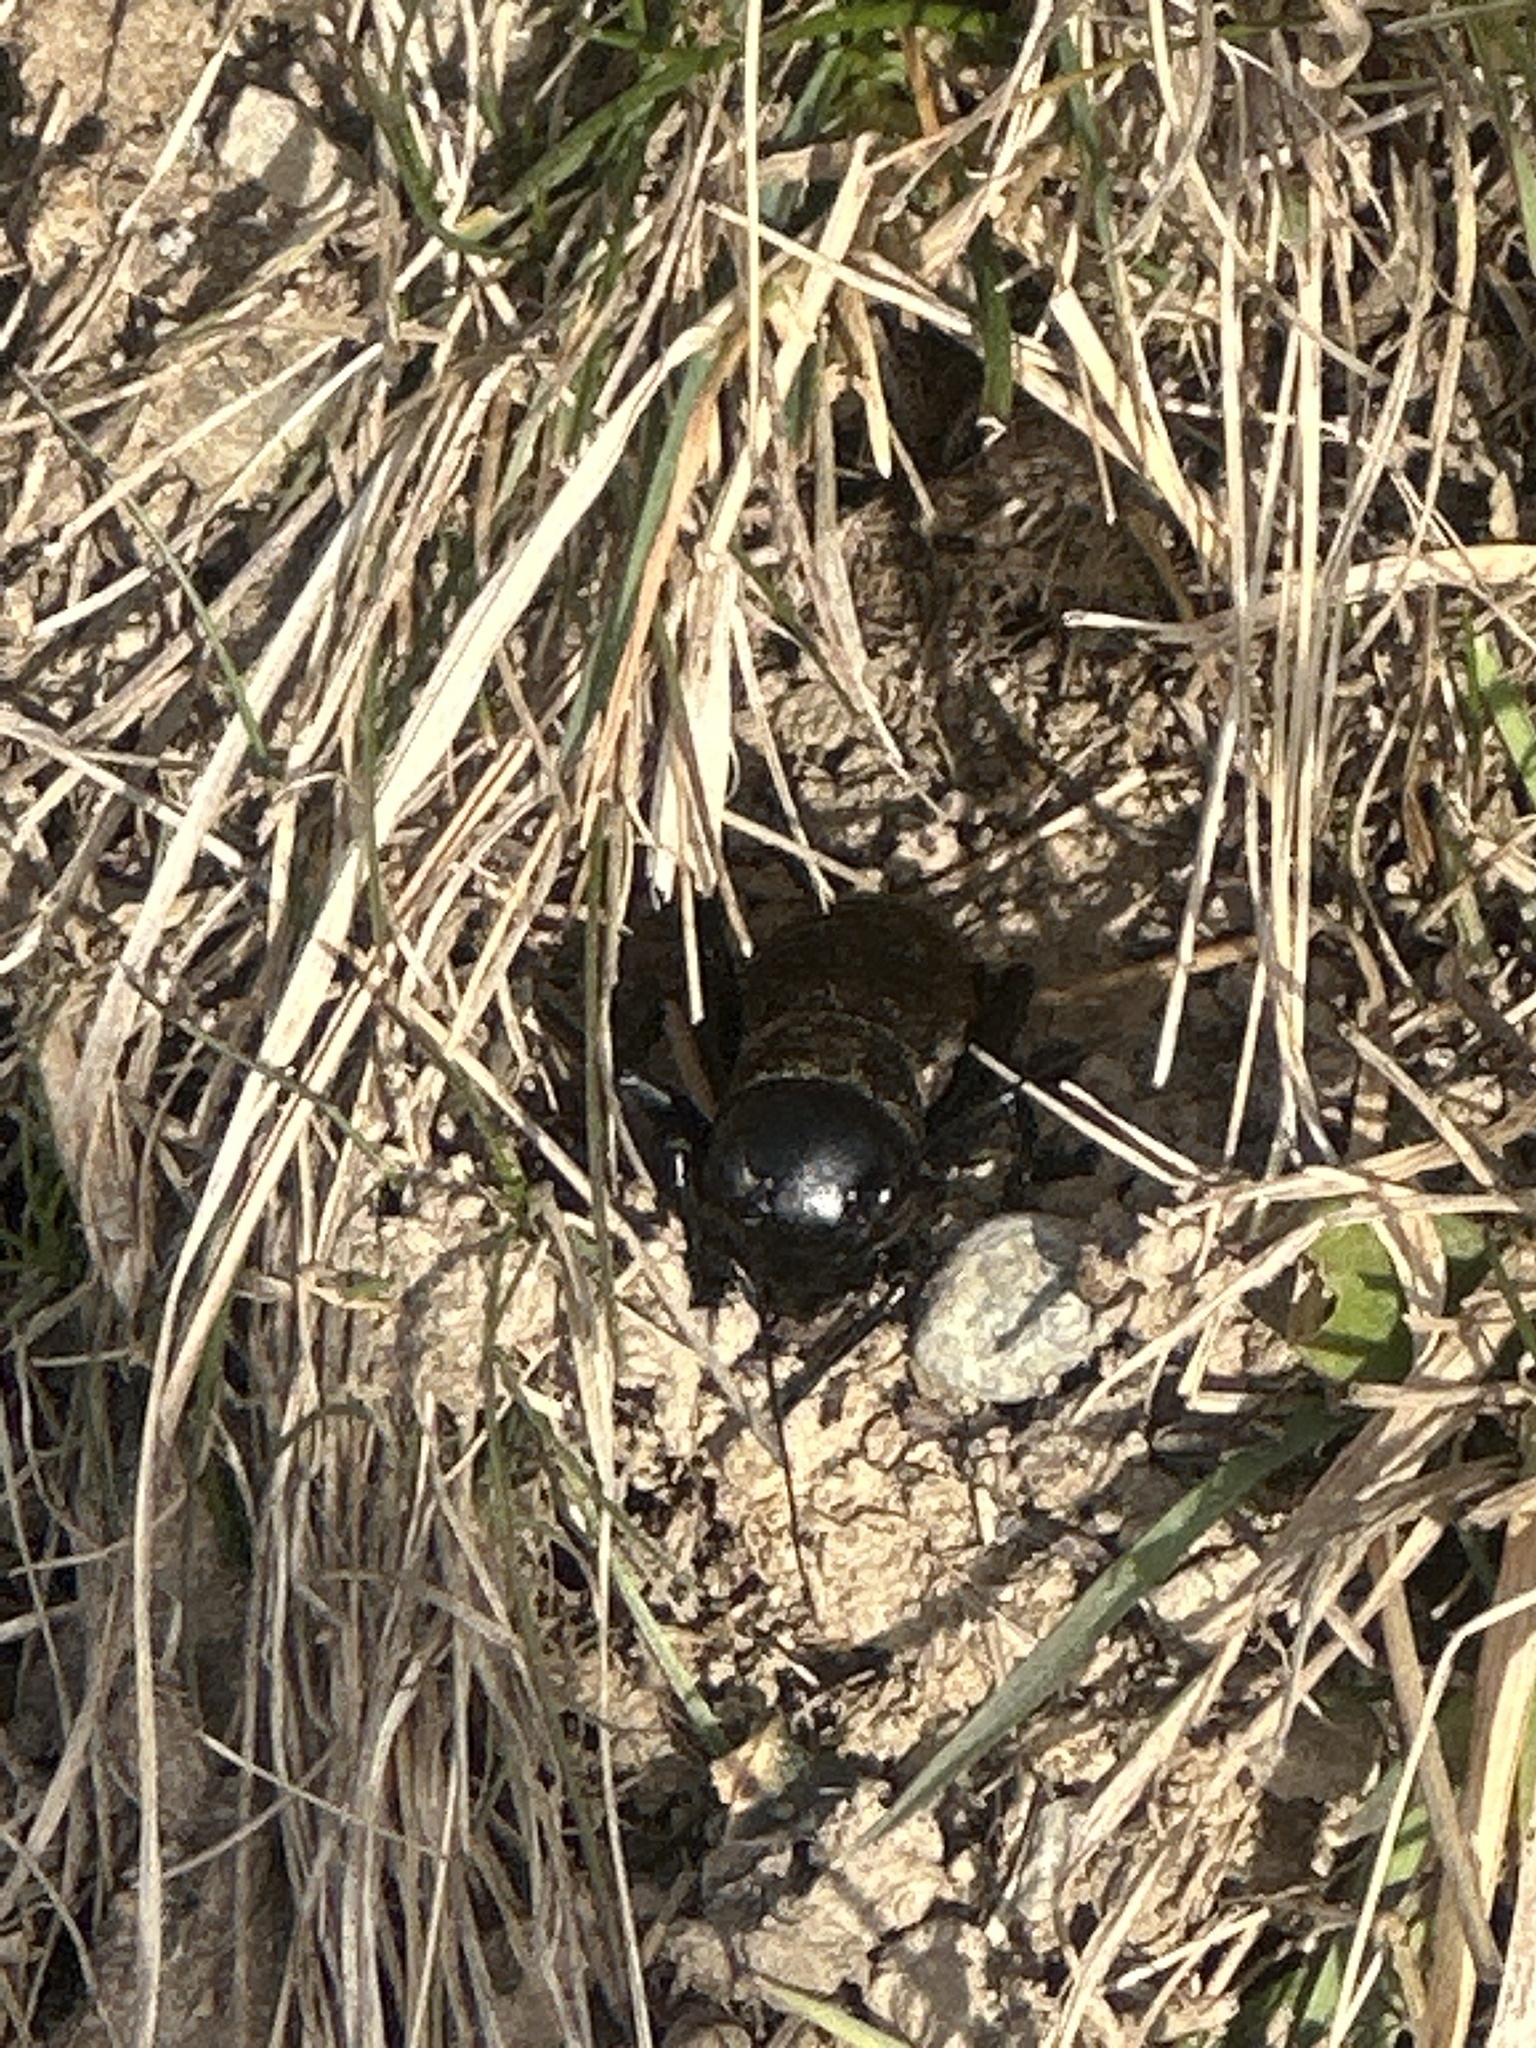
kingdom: Animalia
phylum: Arthropoda
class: Insecta
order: Orthoptera
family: Gryllidae
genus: Gryllus
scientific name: Gryllus campestris
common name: Field cricket
